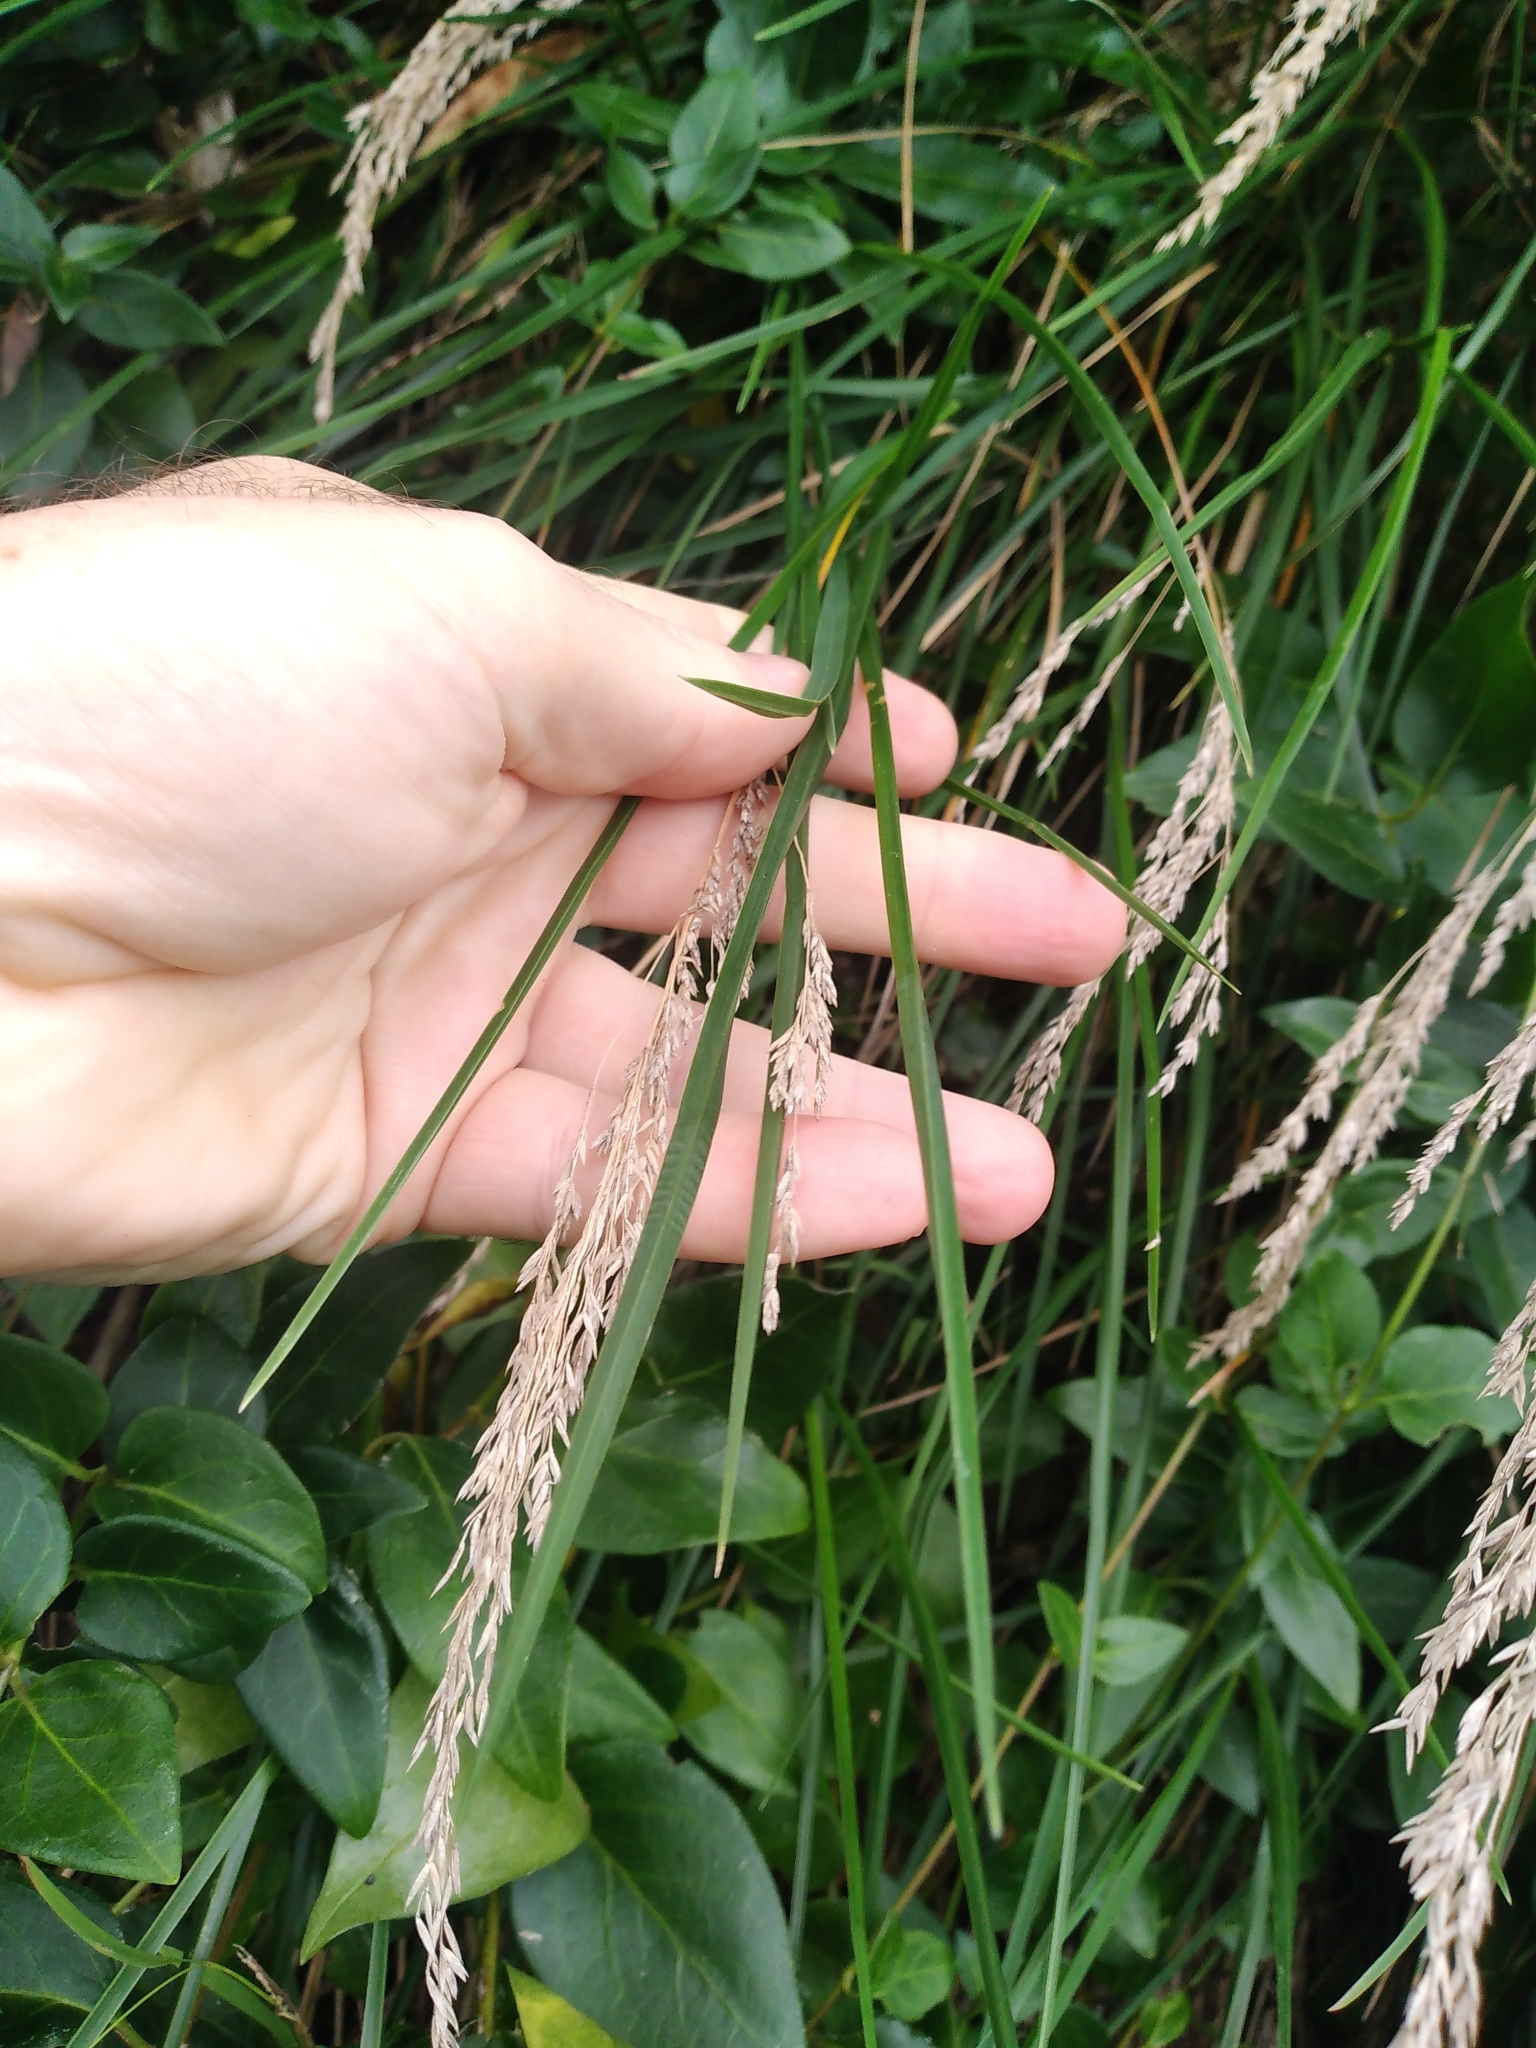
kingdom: Plantae
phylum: Tracheophyta
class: Liliopsida
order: Poales
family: Poaceae
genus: Poa
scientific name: Poa anceps
